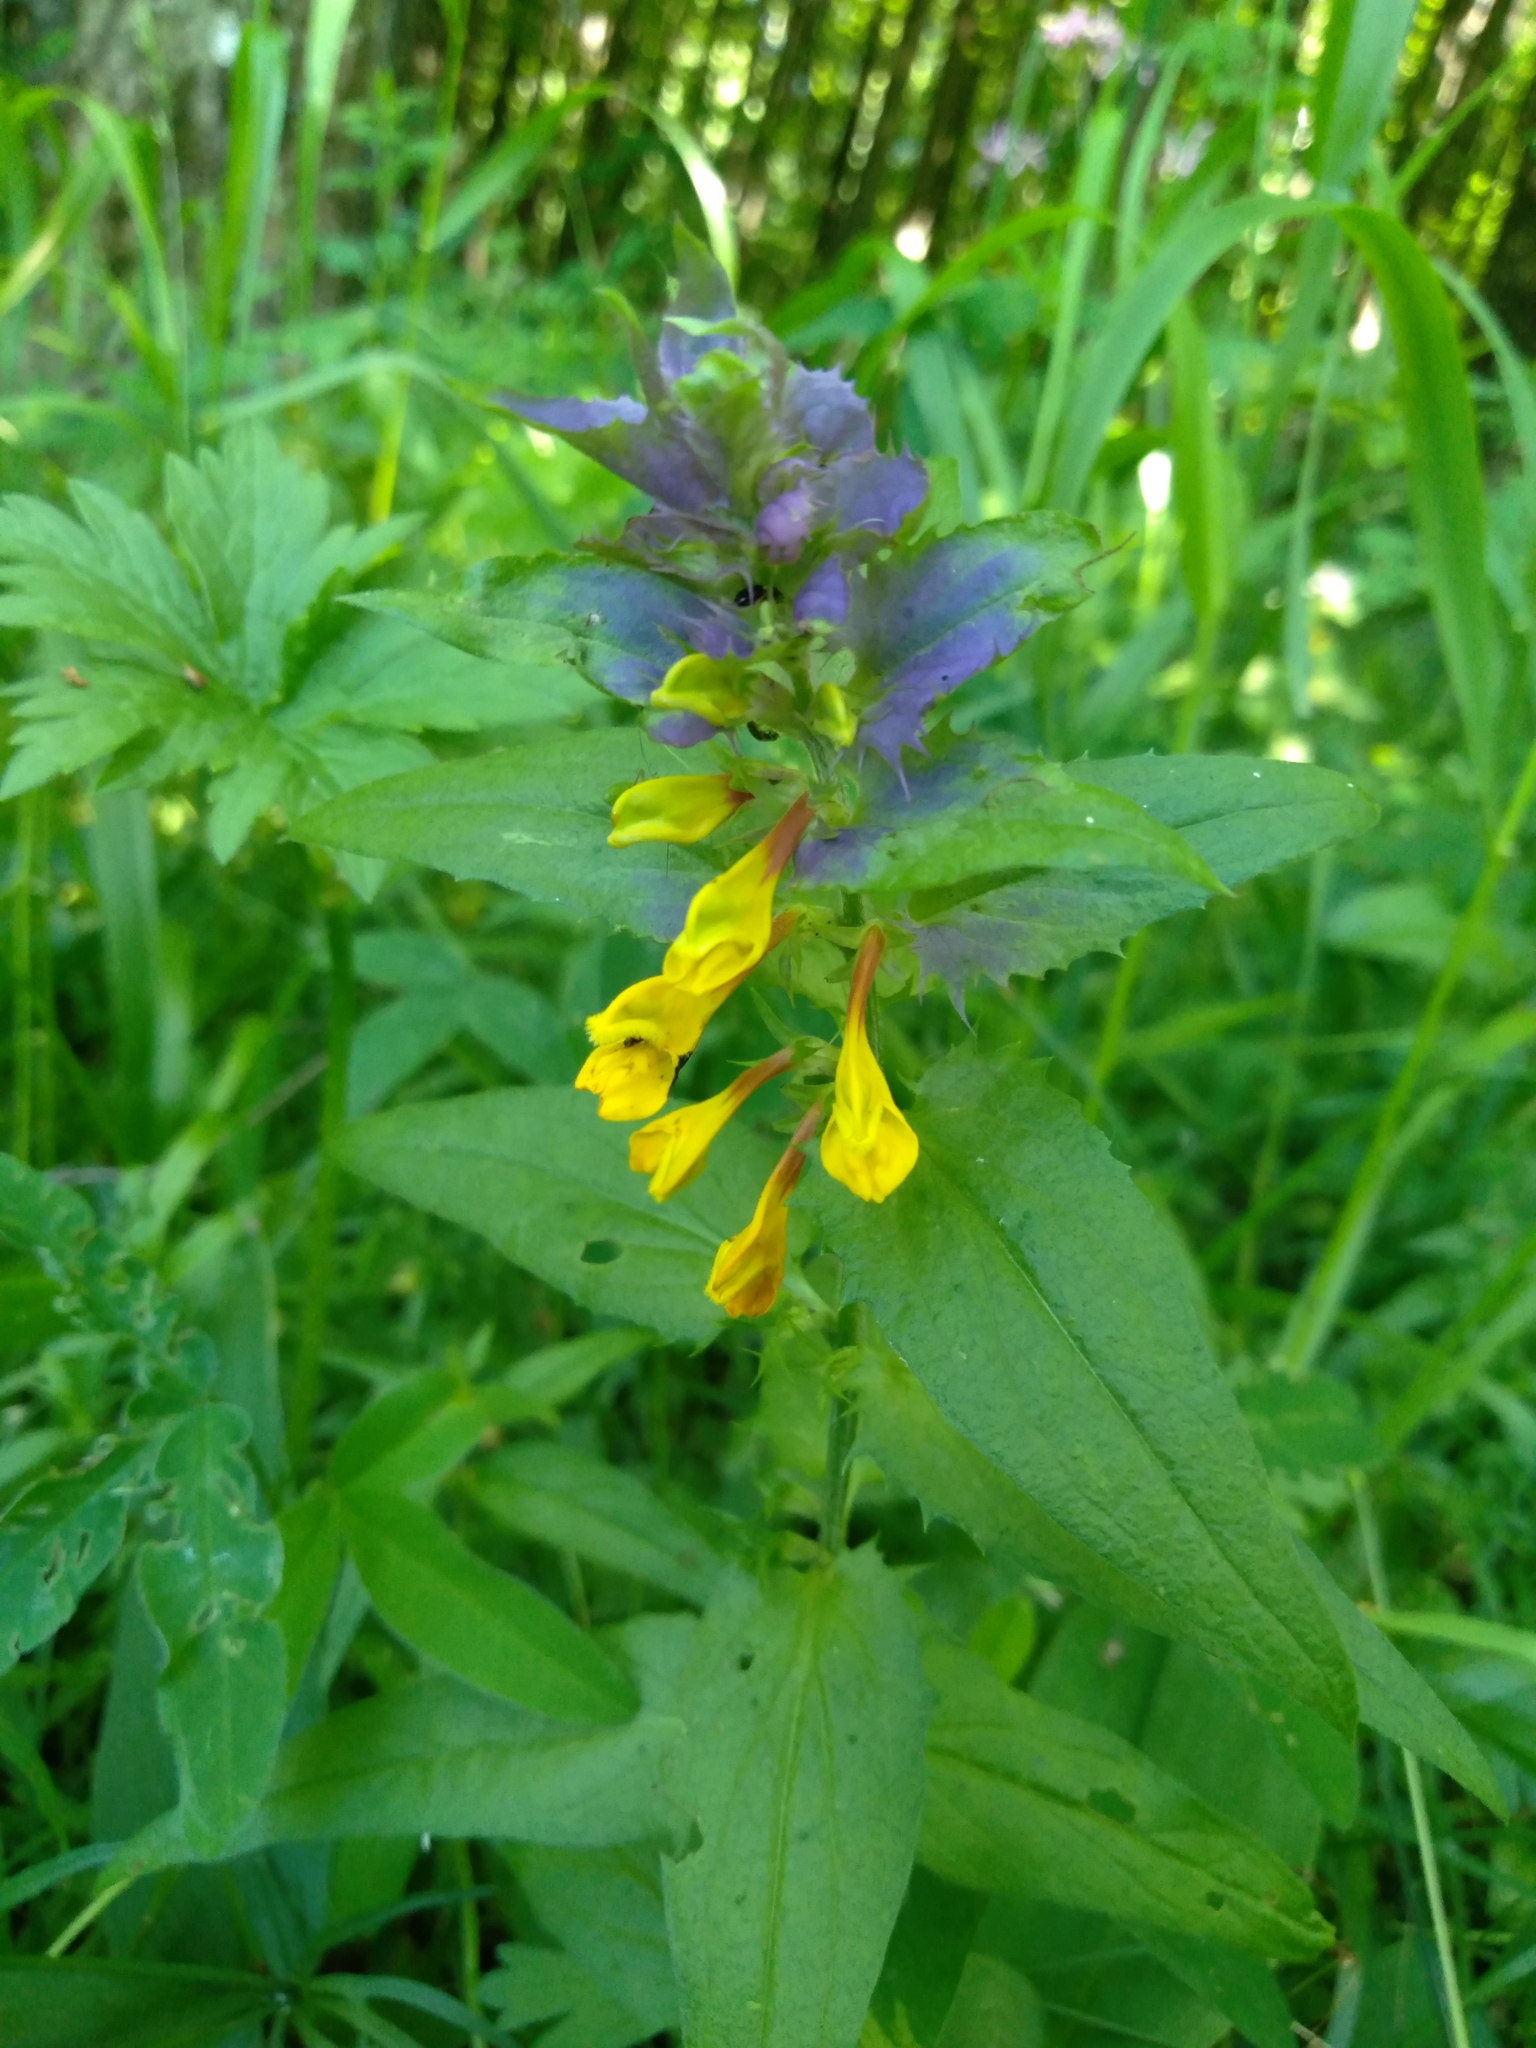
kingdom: Plantae
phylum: Tracheophyta
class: Magnoliopsida
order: Lamiales
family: Orobanchaceae
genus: Melampyrum
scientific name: Melampyrum nemorosum
